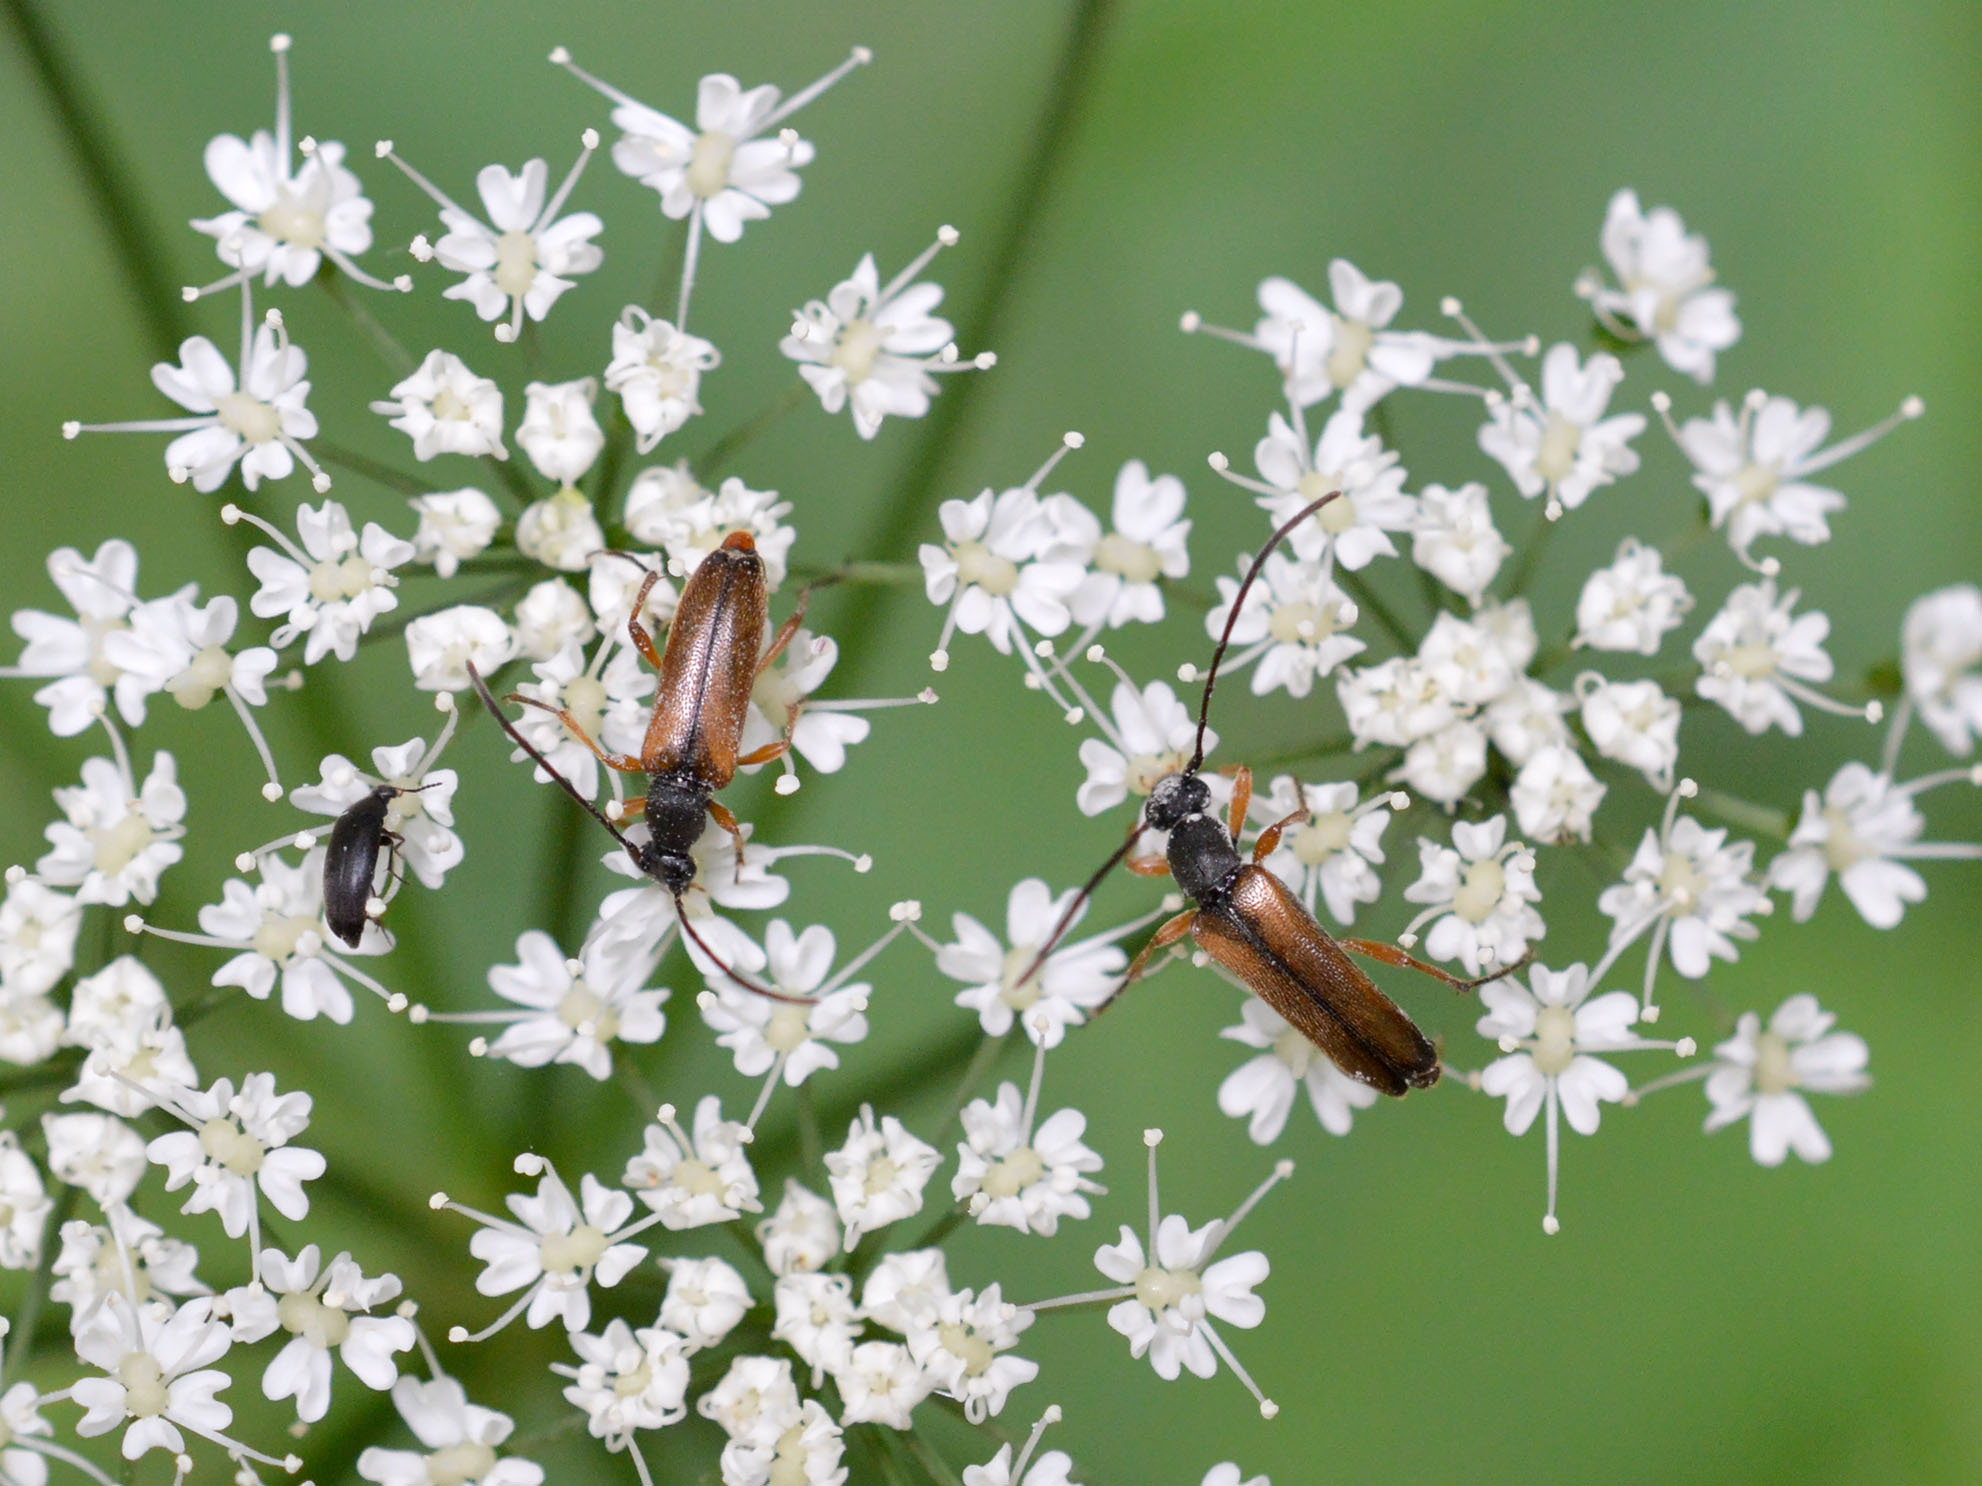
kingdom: Animalia
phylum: Arthropoda
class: Insecta
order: Coleoptera
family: Cerambycidae
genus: Alosterna
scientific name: Alosterna tabacicolor
